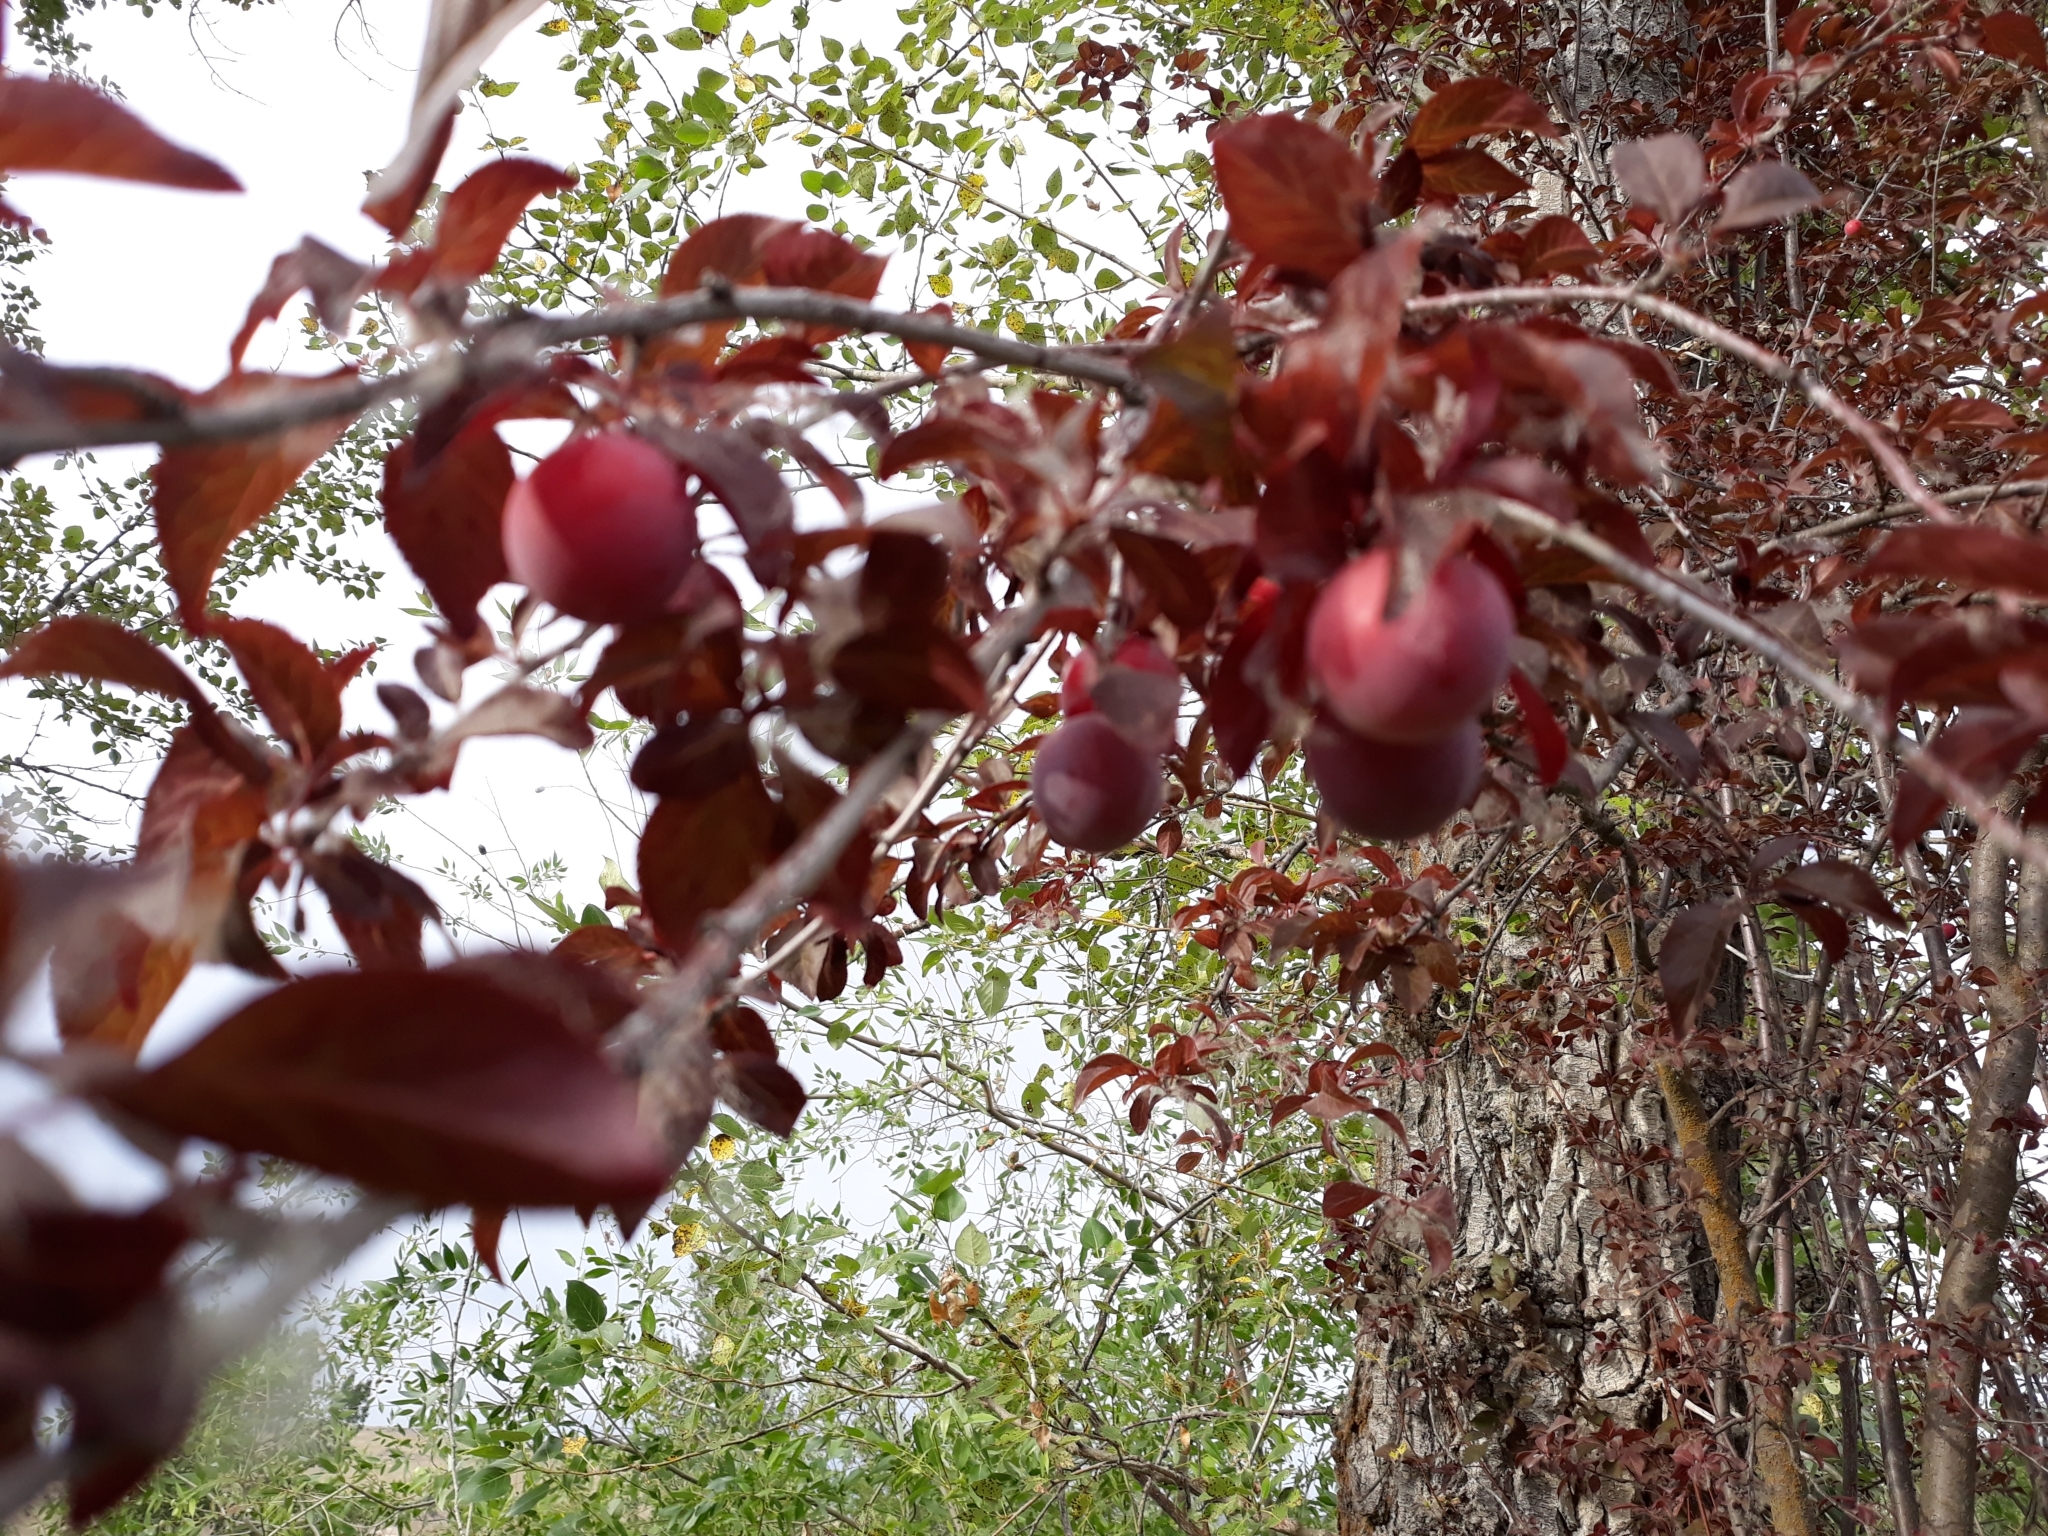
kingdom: Plantae
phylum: Tracheophyta
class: Magnoliopsida
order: Rosales
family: Rosaceae
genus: Prunus
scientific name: Prunus cerasifera
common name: Cherry plum
